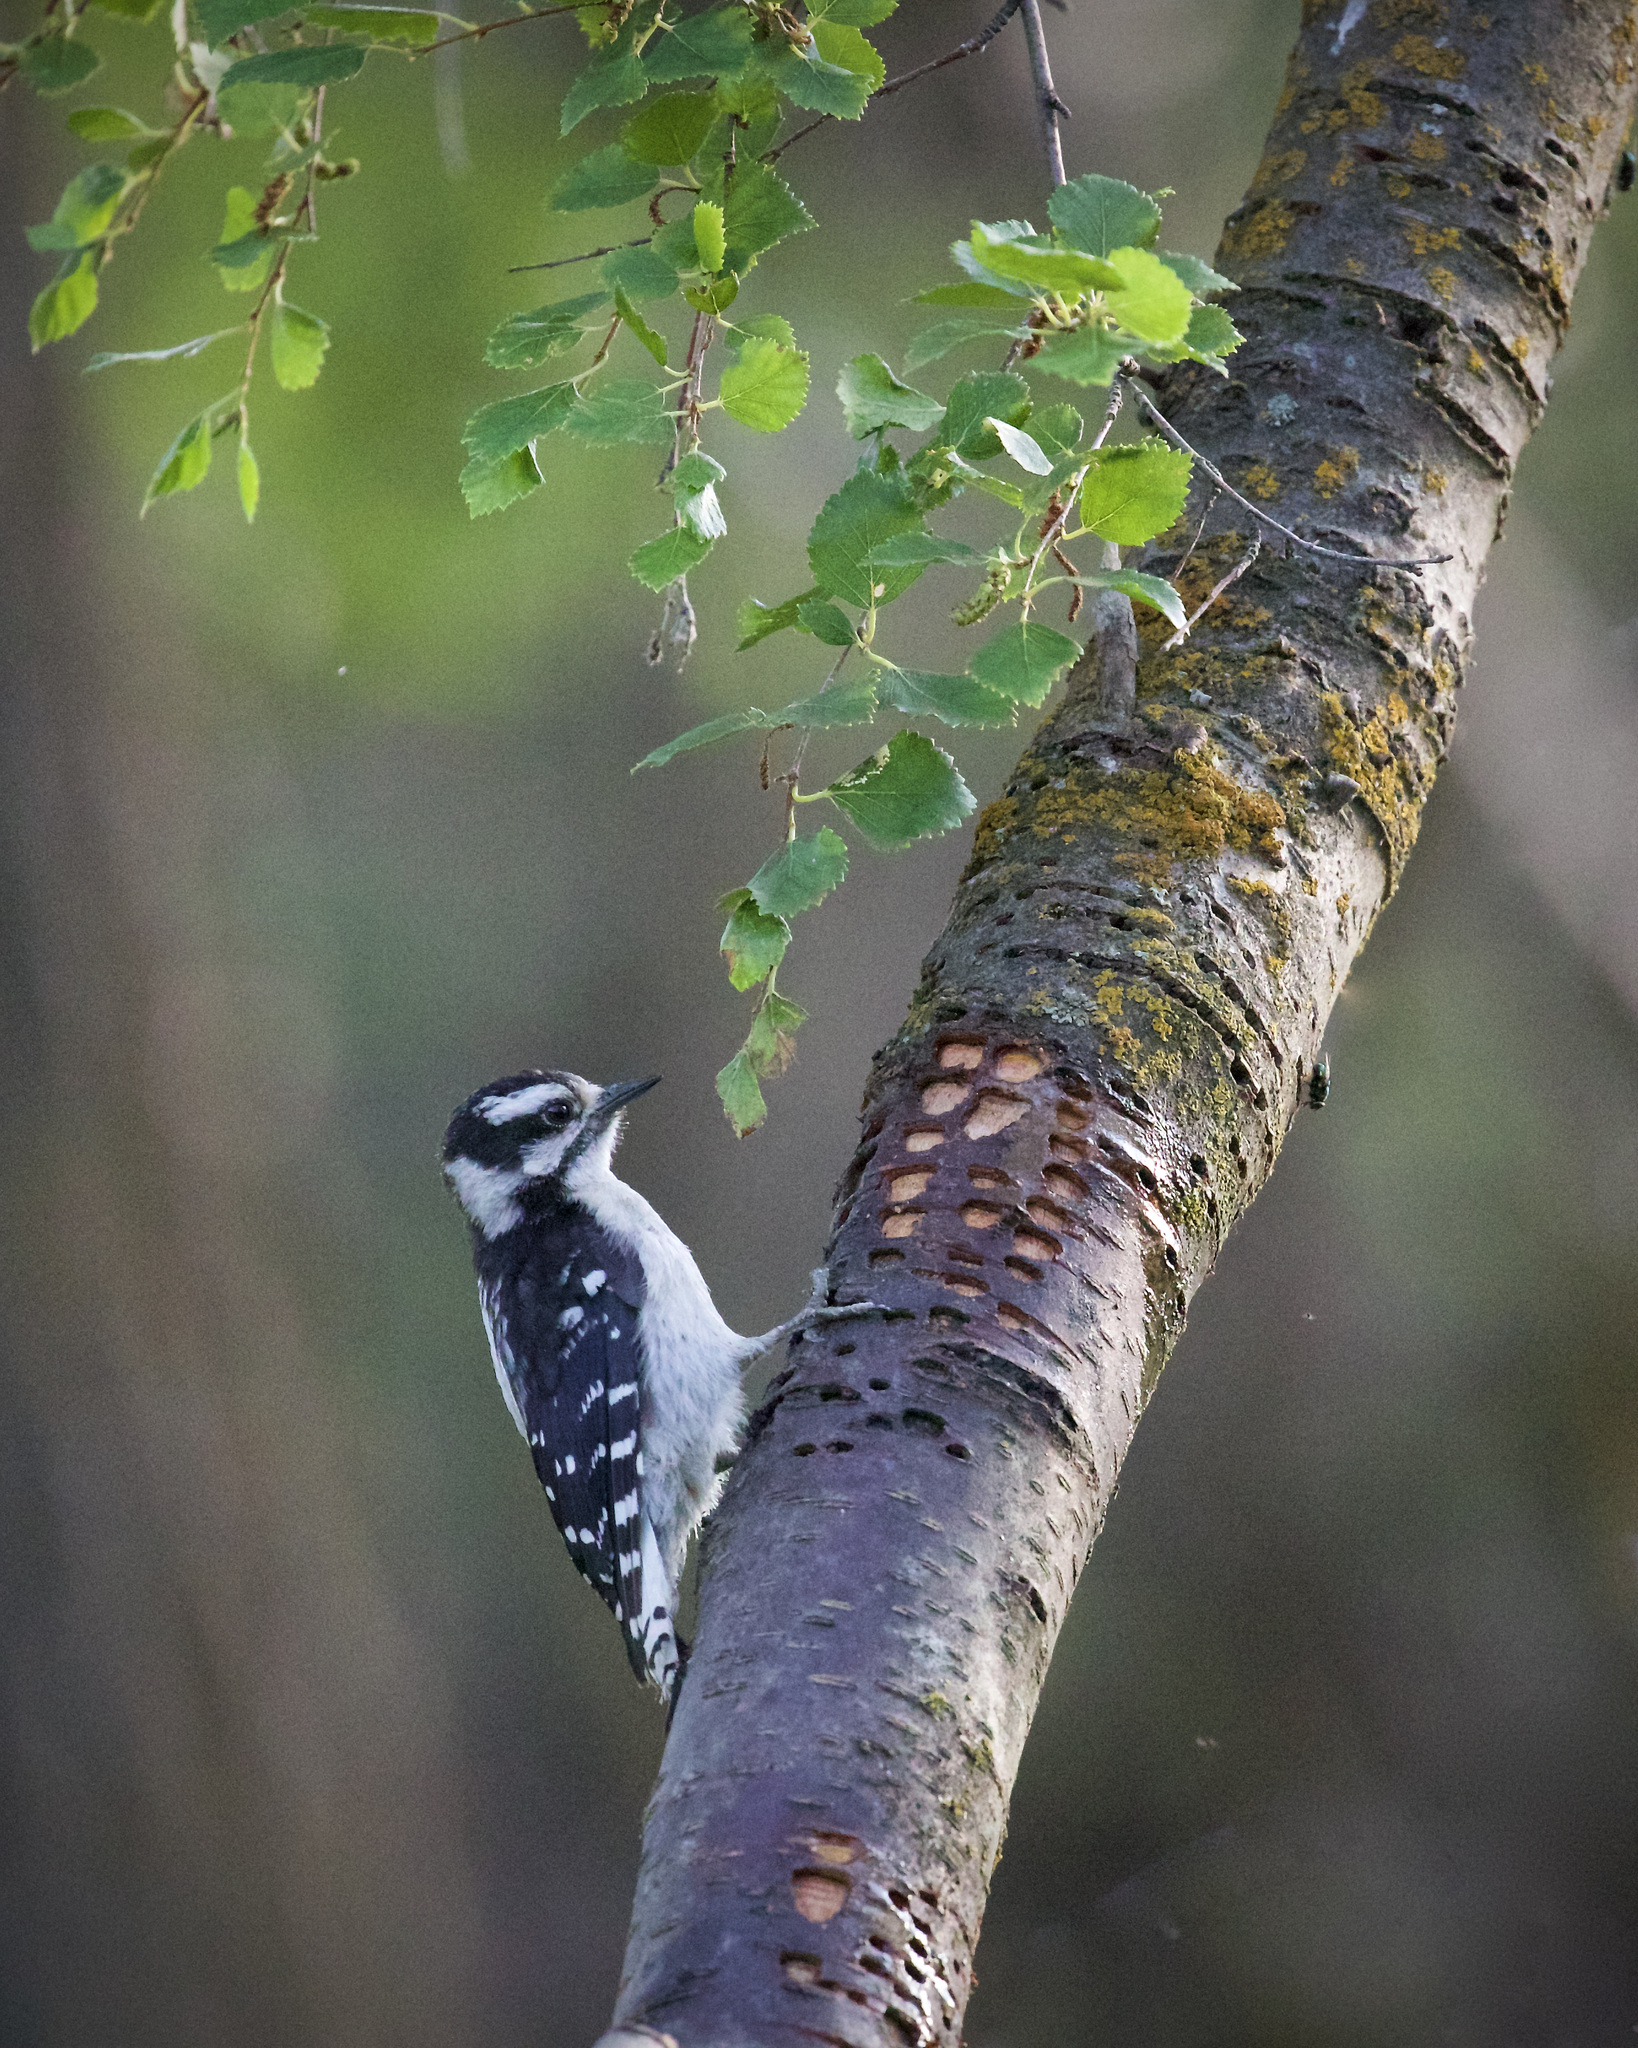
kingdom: Animalia
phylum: Chordata
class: Aves
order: Piciformes
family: Picidae
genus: Dryobates
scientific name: Dryobates pubescens
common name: Downy woodpecker
